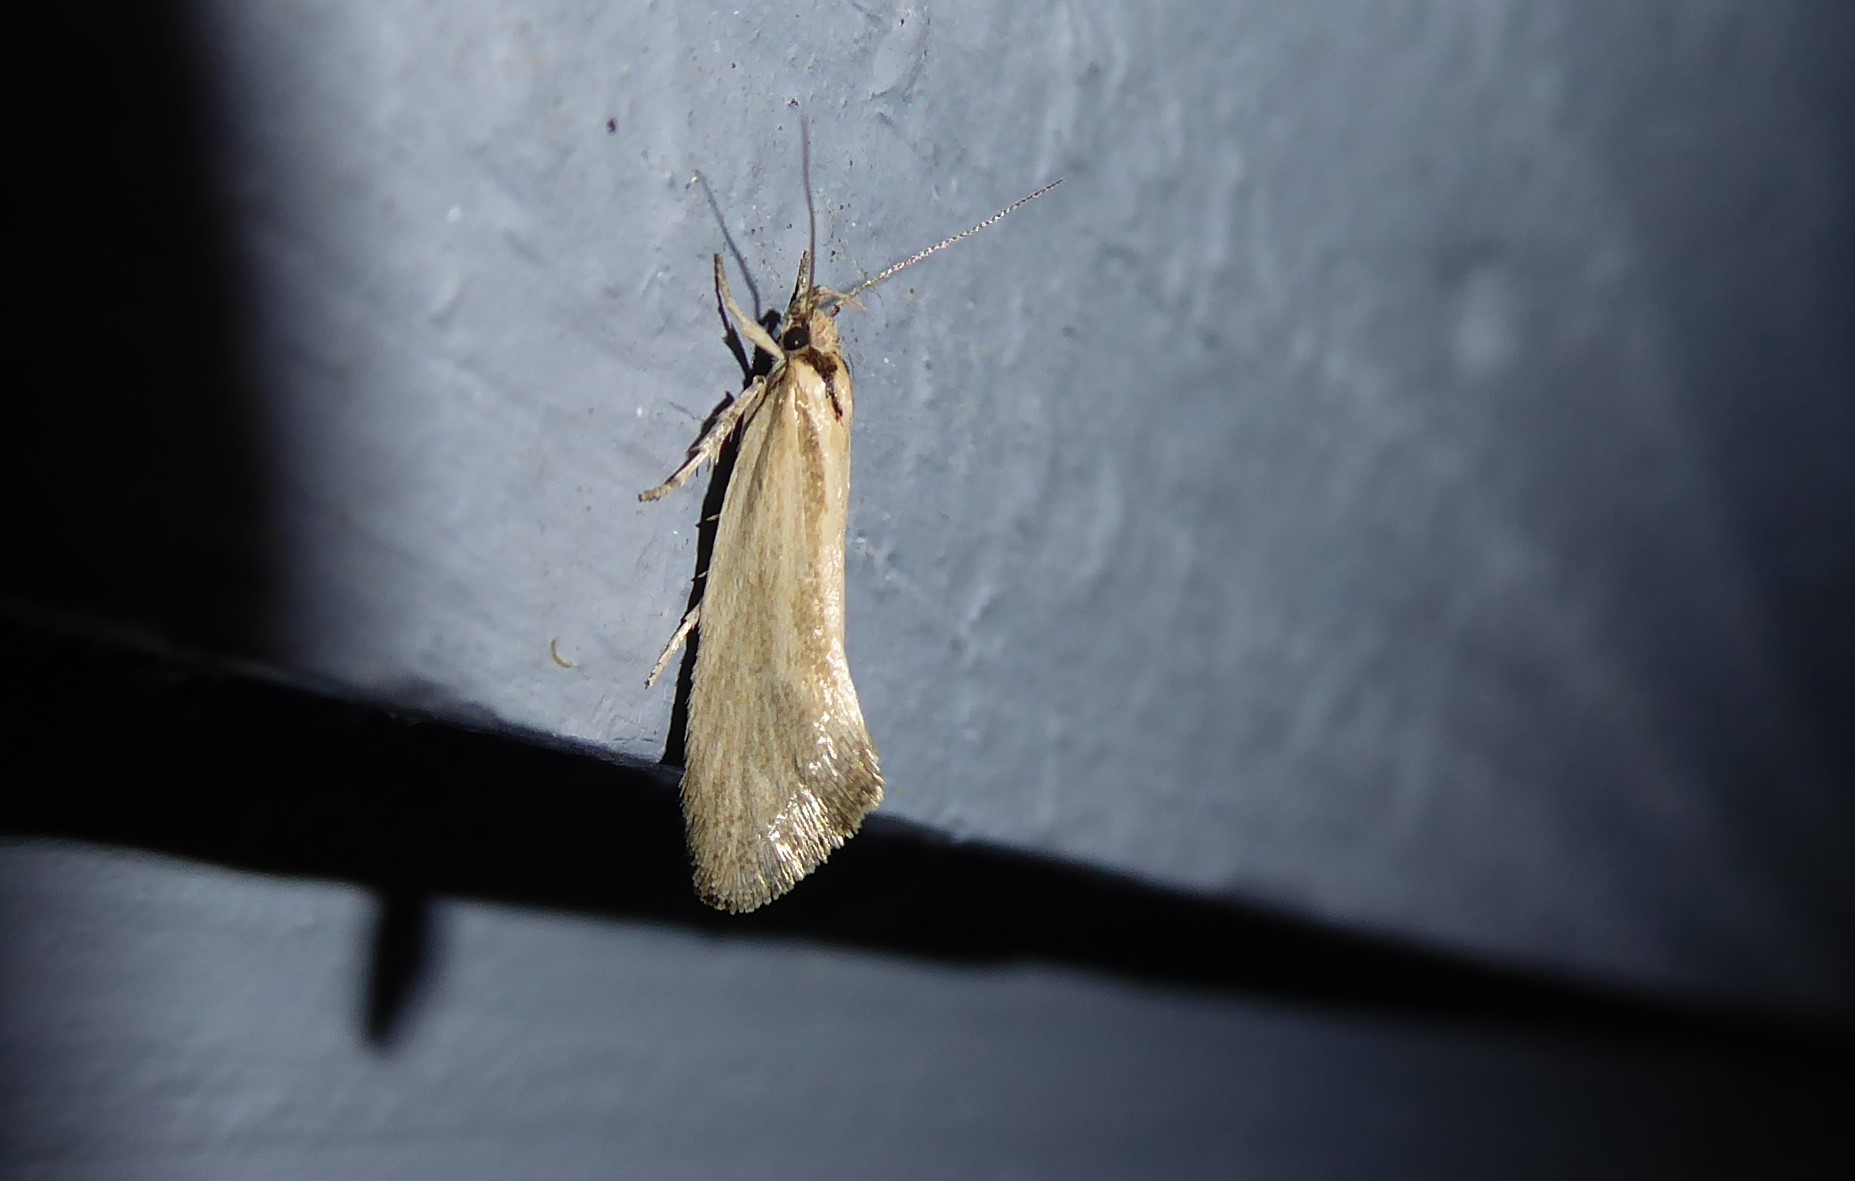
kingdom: Animalia
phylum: Arthropoda
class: Insecta
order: Lepidoptera
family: Oecophoridae
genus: Tingena
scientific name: Tingena chloradelpha
